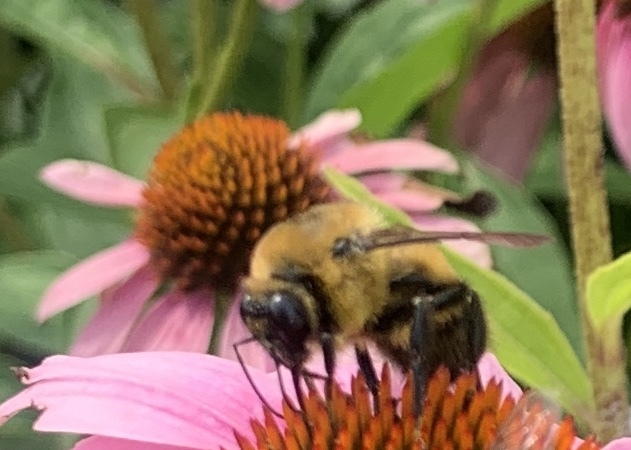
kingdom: Animalia
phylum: Arthropoda
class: Insecta
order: Hymenoptera
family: Apidae
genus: Bombus
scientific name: Bombus griseocollis
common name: Brown-belted bumble bee
